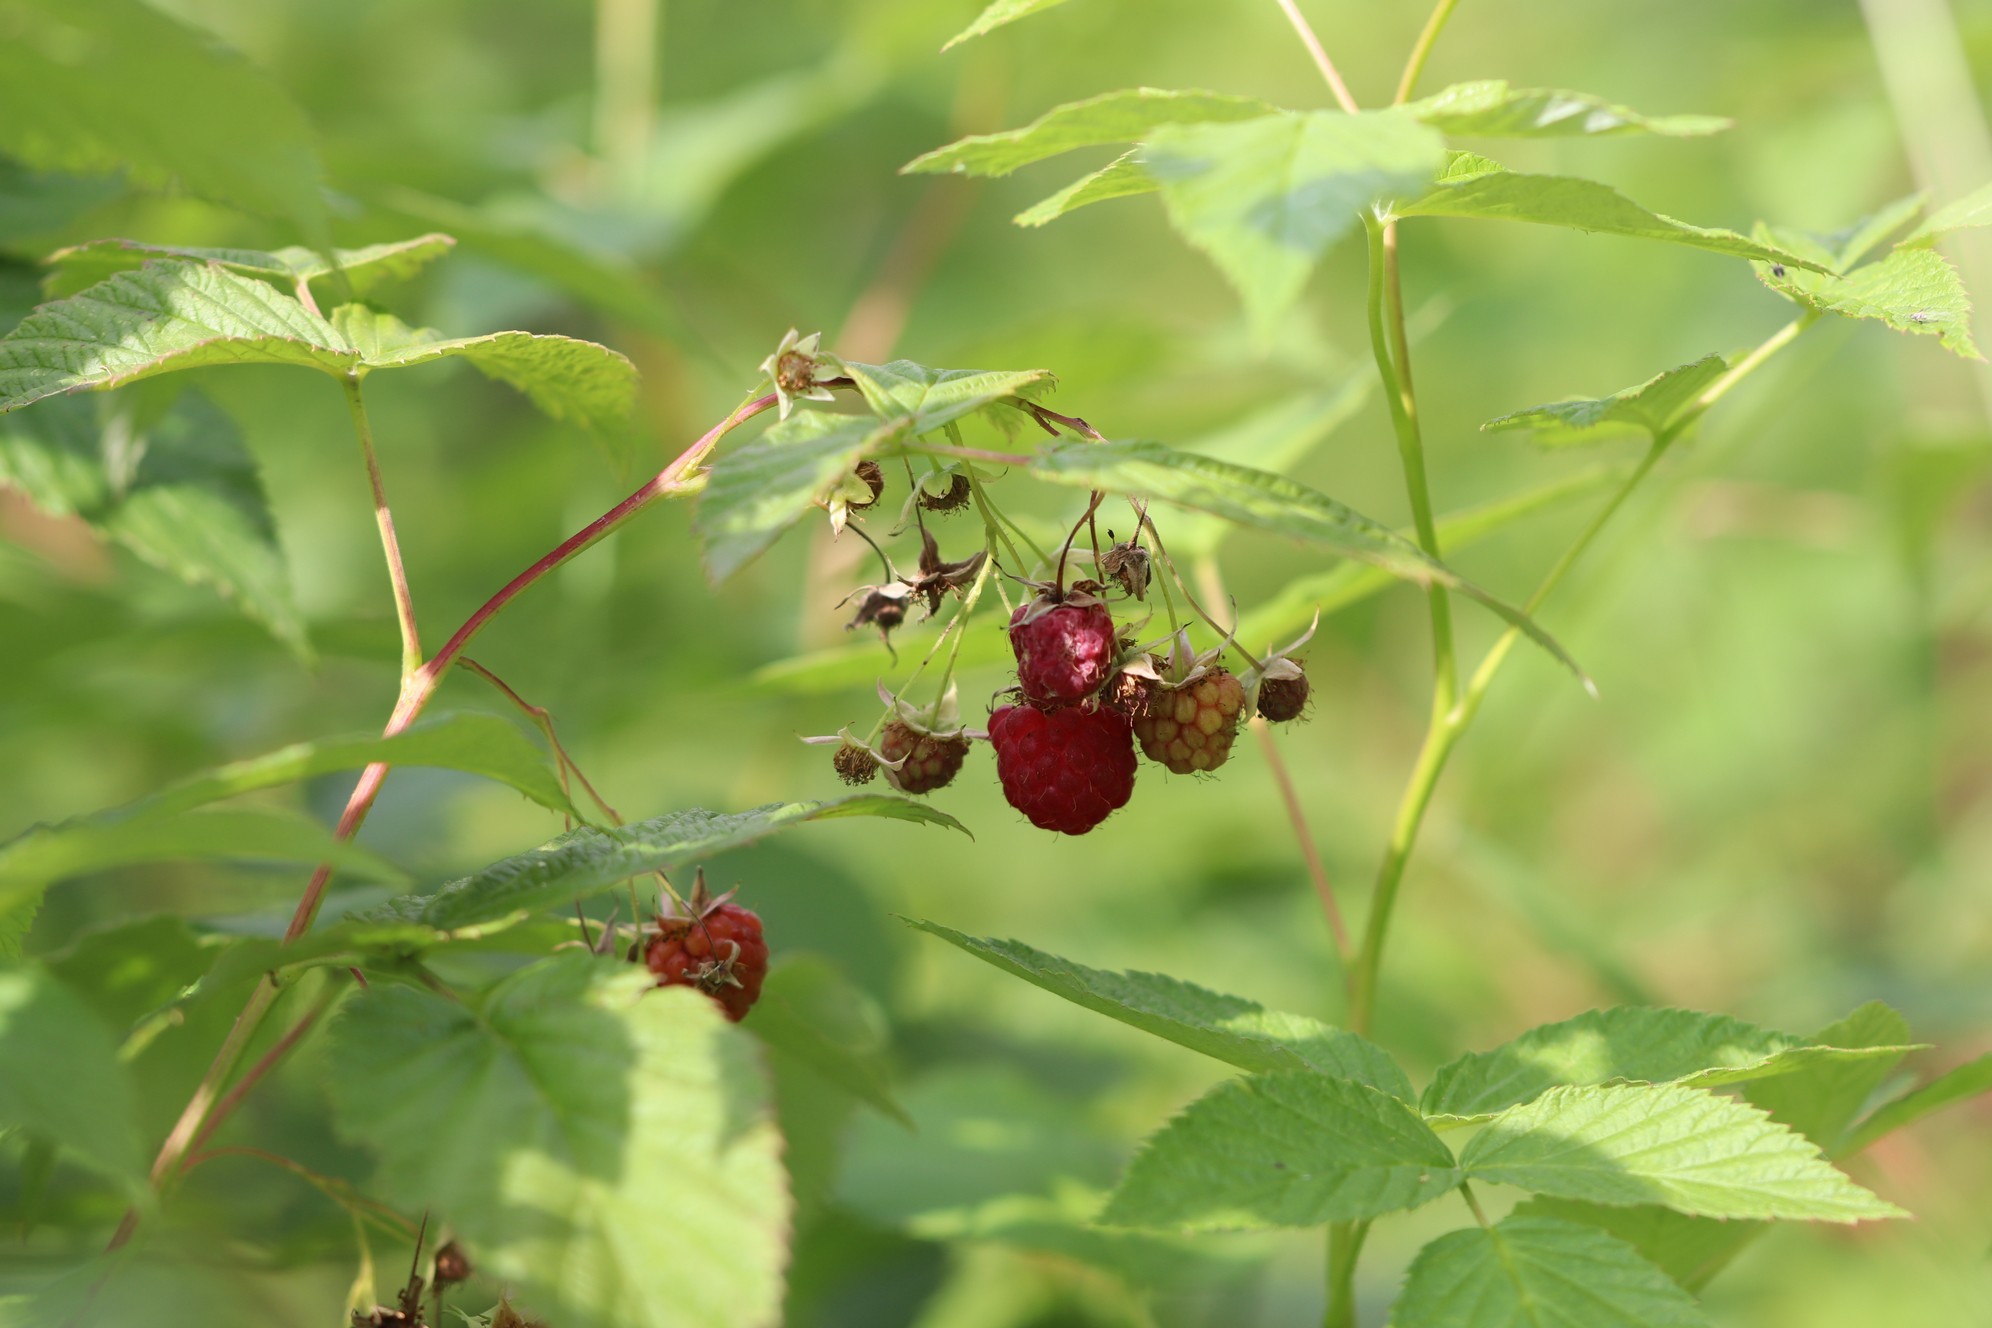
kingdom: Plantae
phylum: Tracheophyta
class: Magnoliopsida
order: Rosales
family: Rosaceae
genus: Rubus
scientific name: Rubus idaeus
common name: Raspberry
